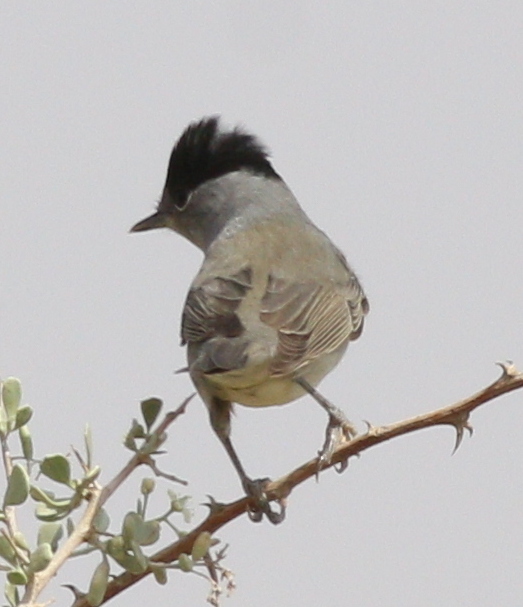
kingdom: Animalia
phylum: Chordata
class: Aves
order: Passeriformes
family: Sylviidae
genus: Sylvia
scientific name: Sylvia atricapilla
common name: Eurasian blackcap
